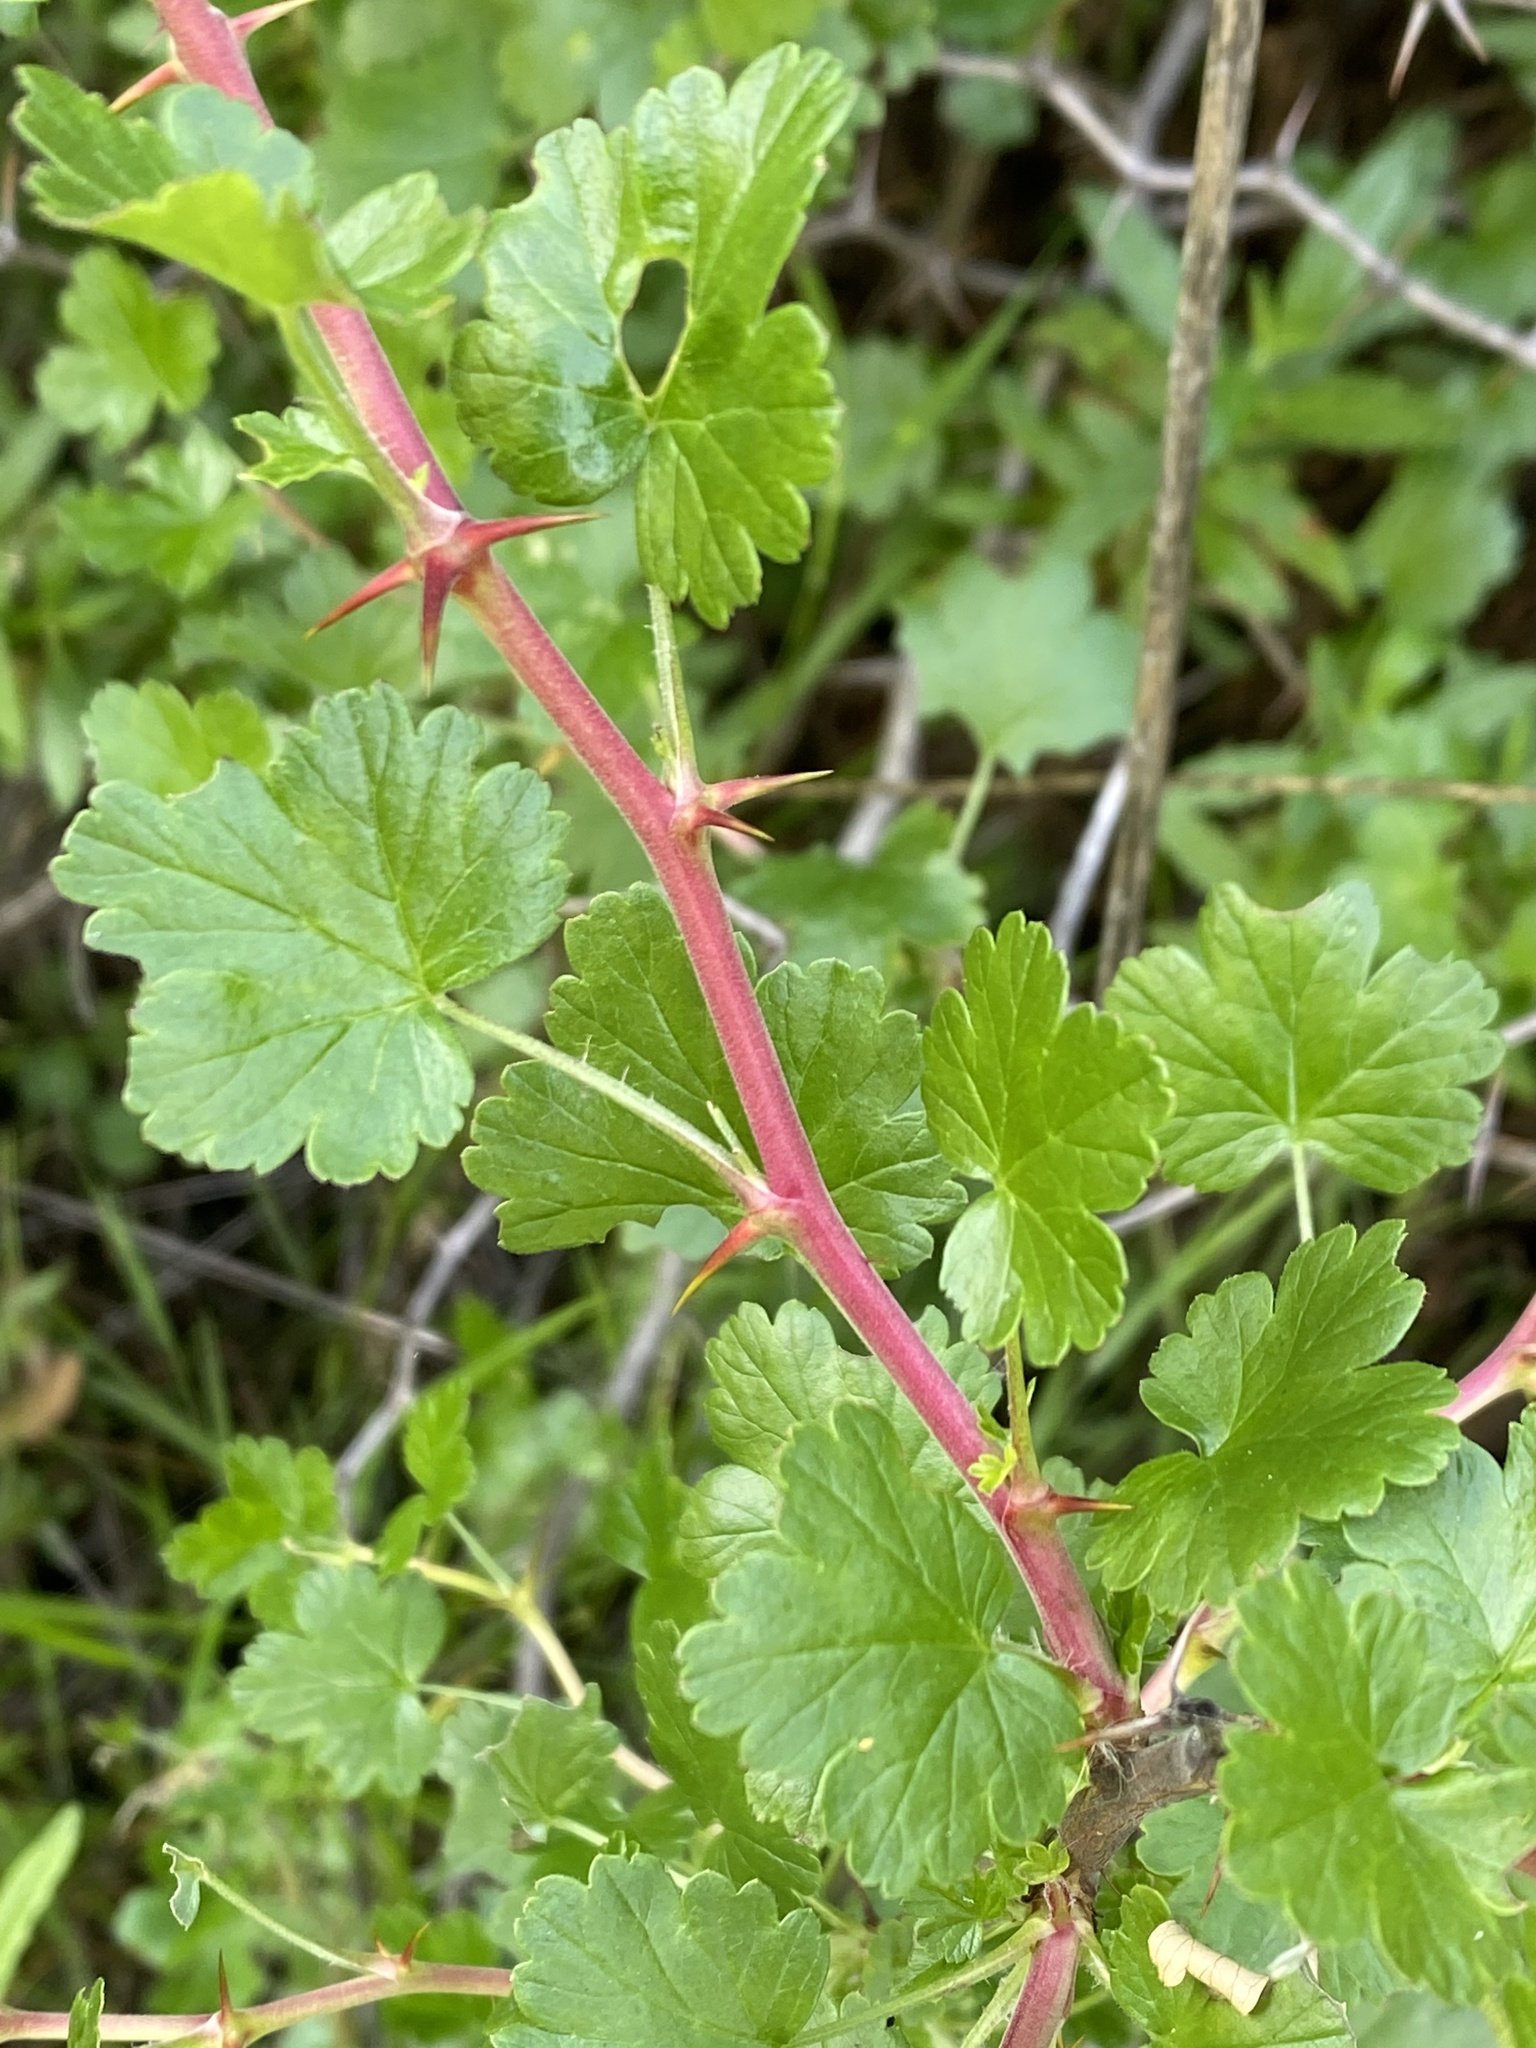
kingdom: Plantae
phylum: Tracheophyta
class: Magnoliopsida
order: Saxifragales
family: Grossulariaceae
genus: Ribes
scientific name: Ribes californicum
